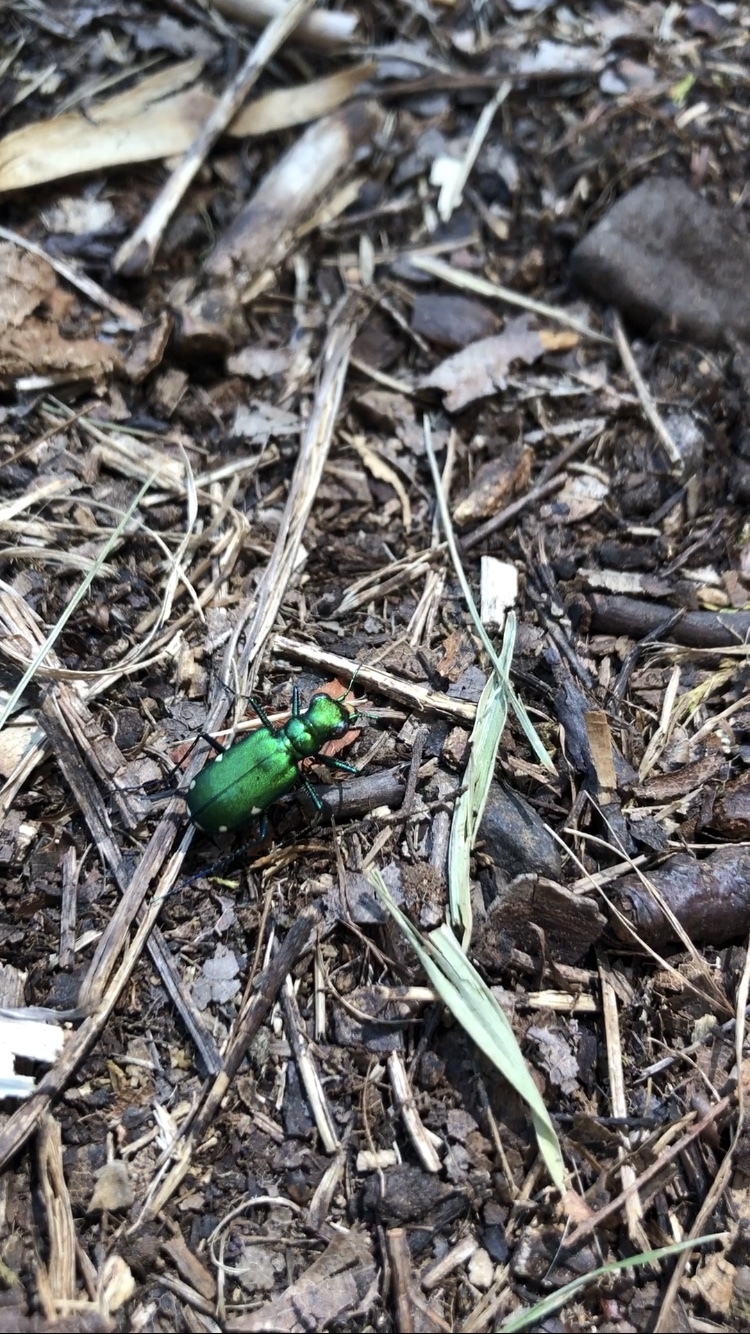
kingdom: Animalia
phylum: Arthropoda
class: Insecta
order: Coleoptera
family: Carabidae
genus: Cicindela
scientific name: Cicindela sexguttata
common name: Six-spotted tiger beetle
